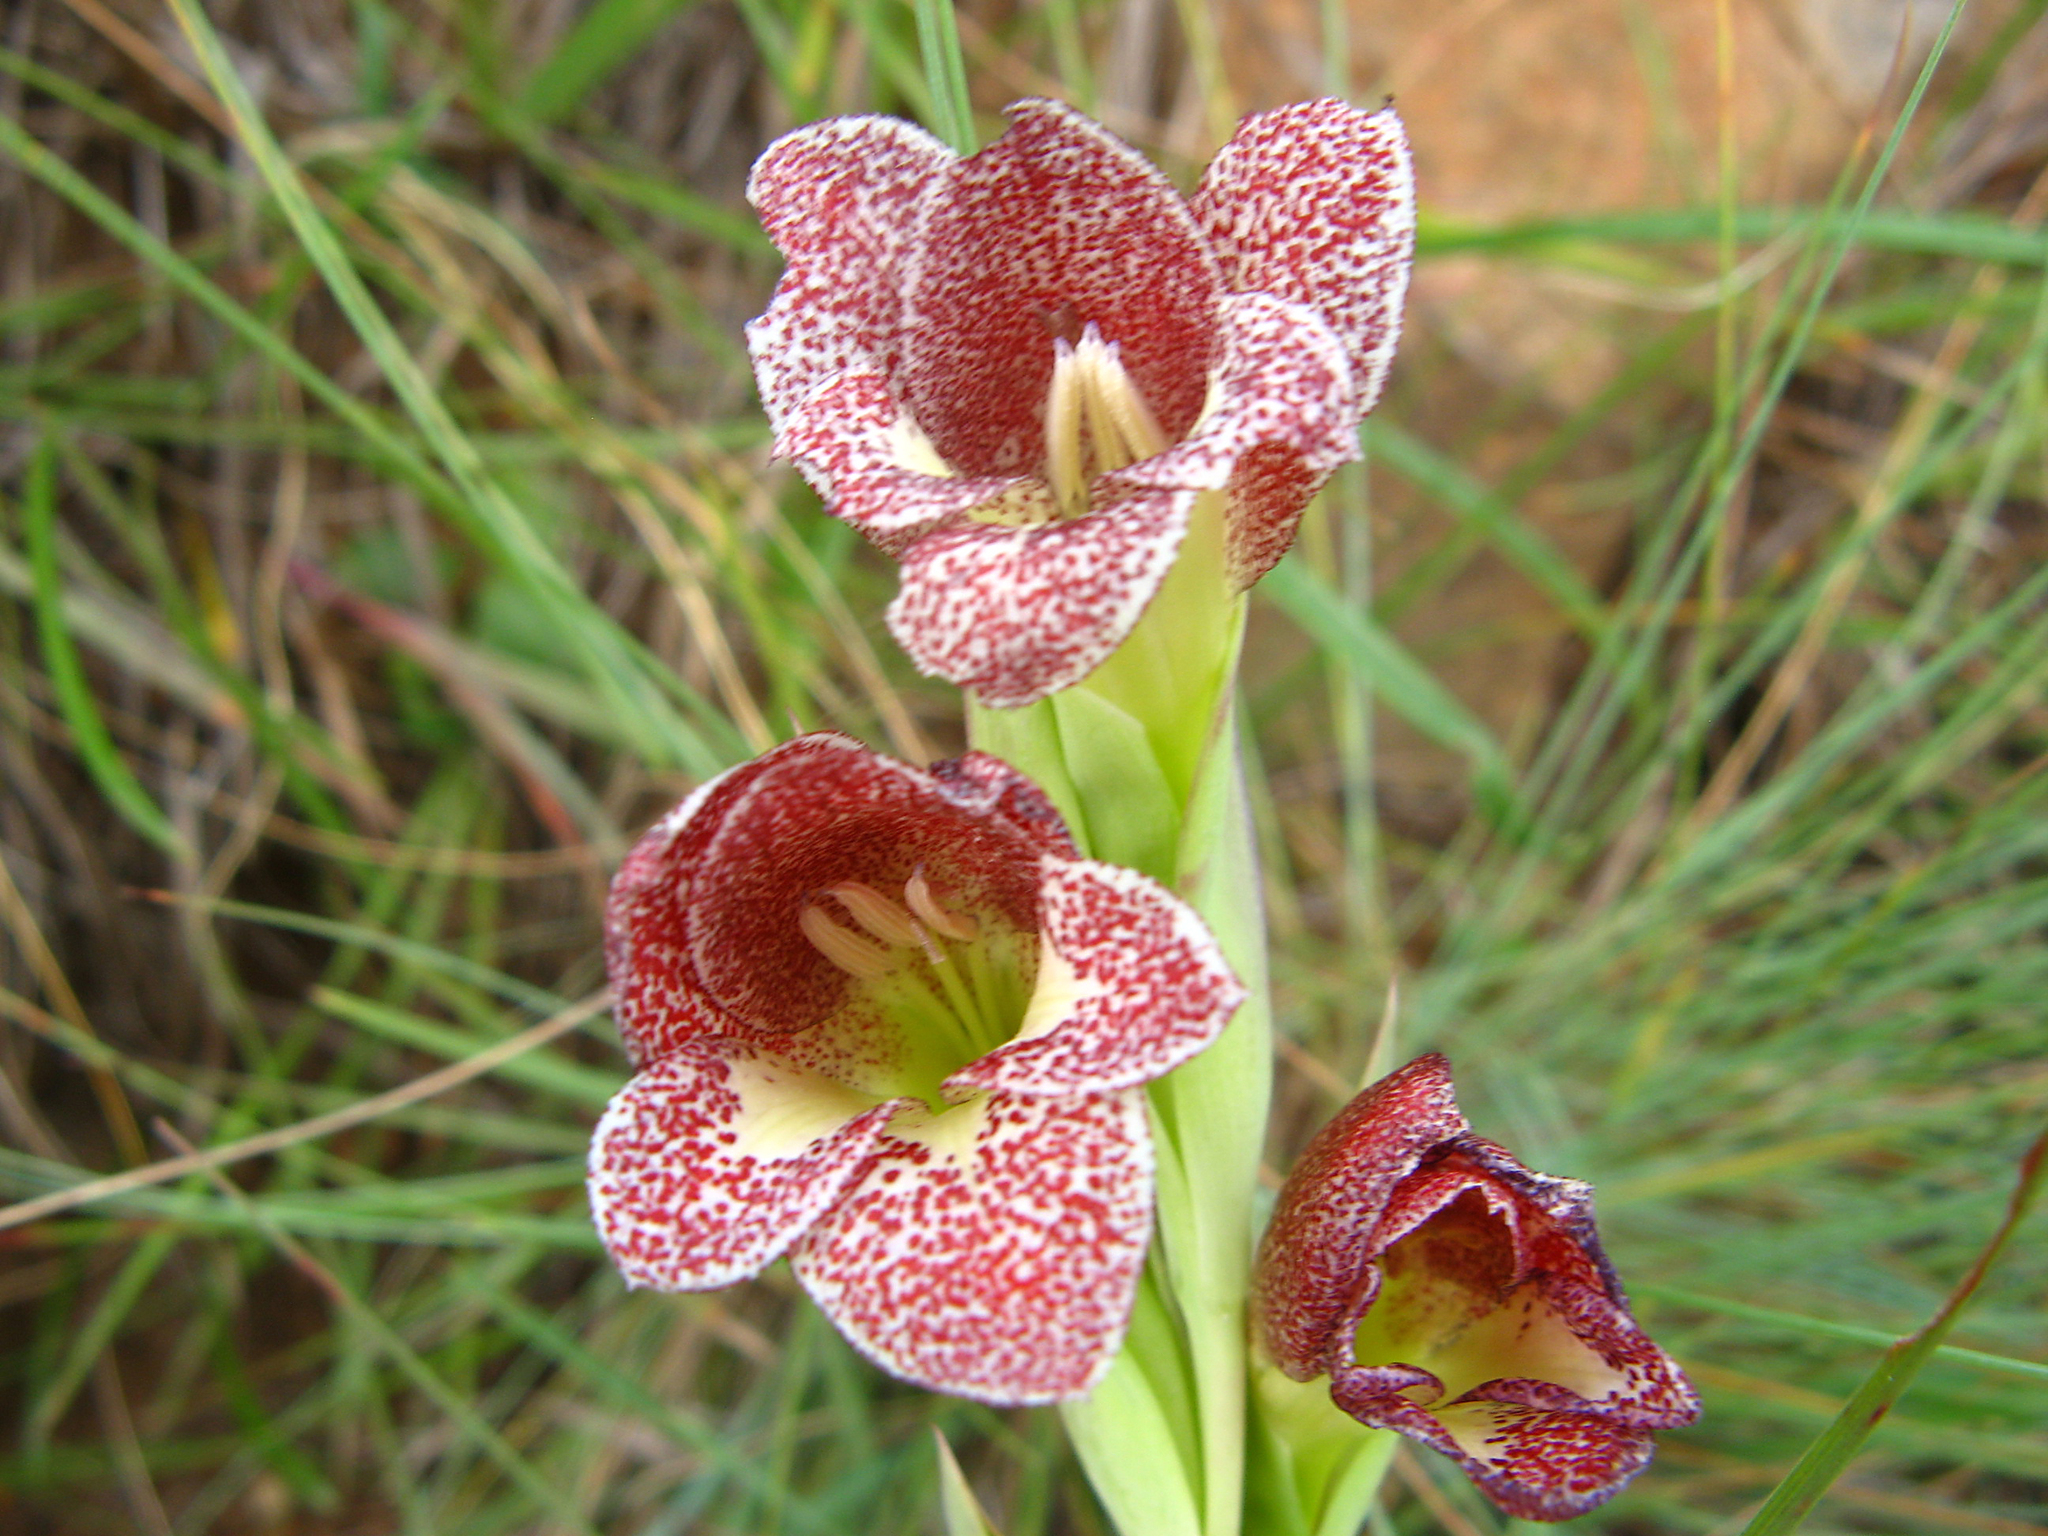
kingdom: Plantae
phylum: Tracheophyta
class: Liliopsida
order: Asparagales
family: Iridaceae
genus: Gladiolus
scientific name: Gladiolus ecklonii
